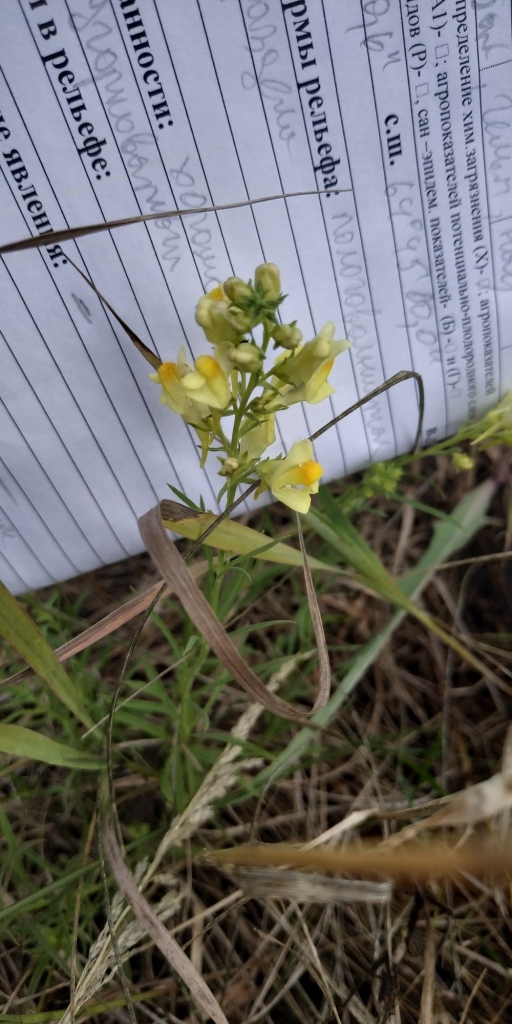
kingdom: Plantae
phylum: Tracheophyta
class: Magnoliopsida
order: Lamiales
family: Plantaginaceae
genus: Linaria
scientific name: Linaria vulgaris
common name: Butter and eggs
